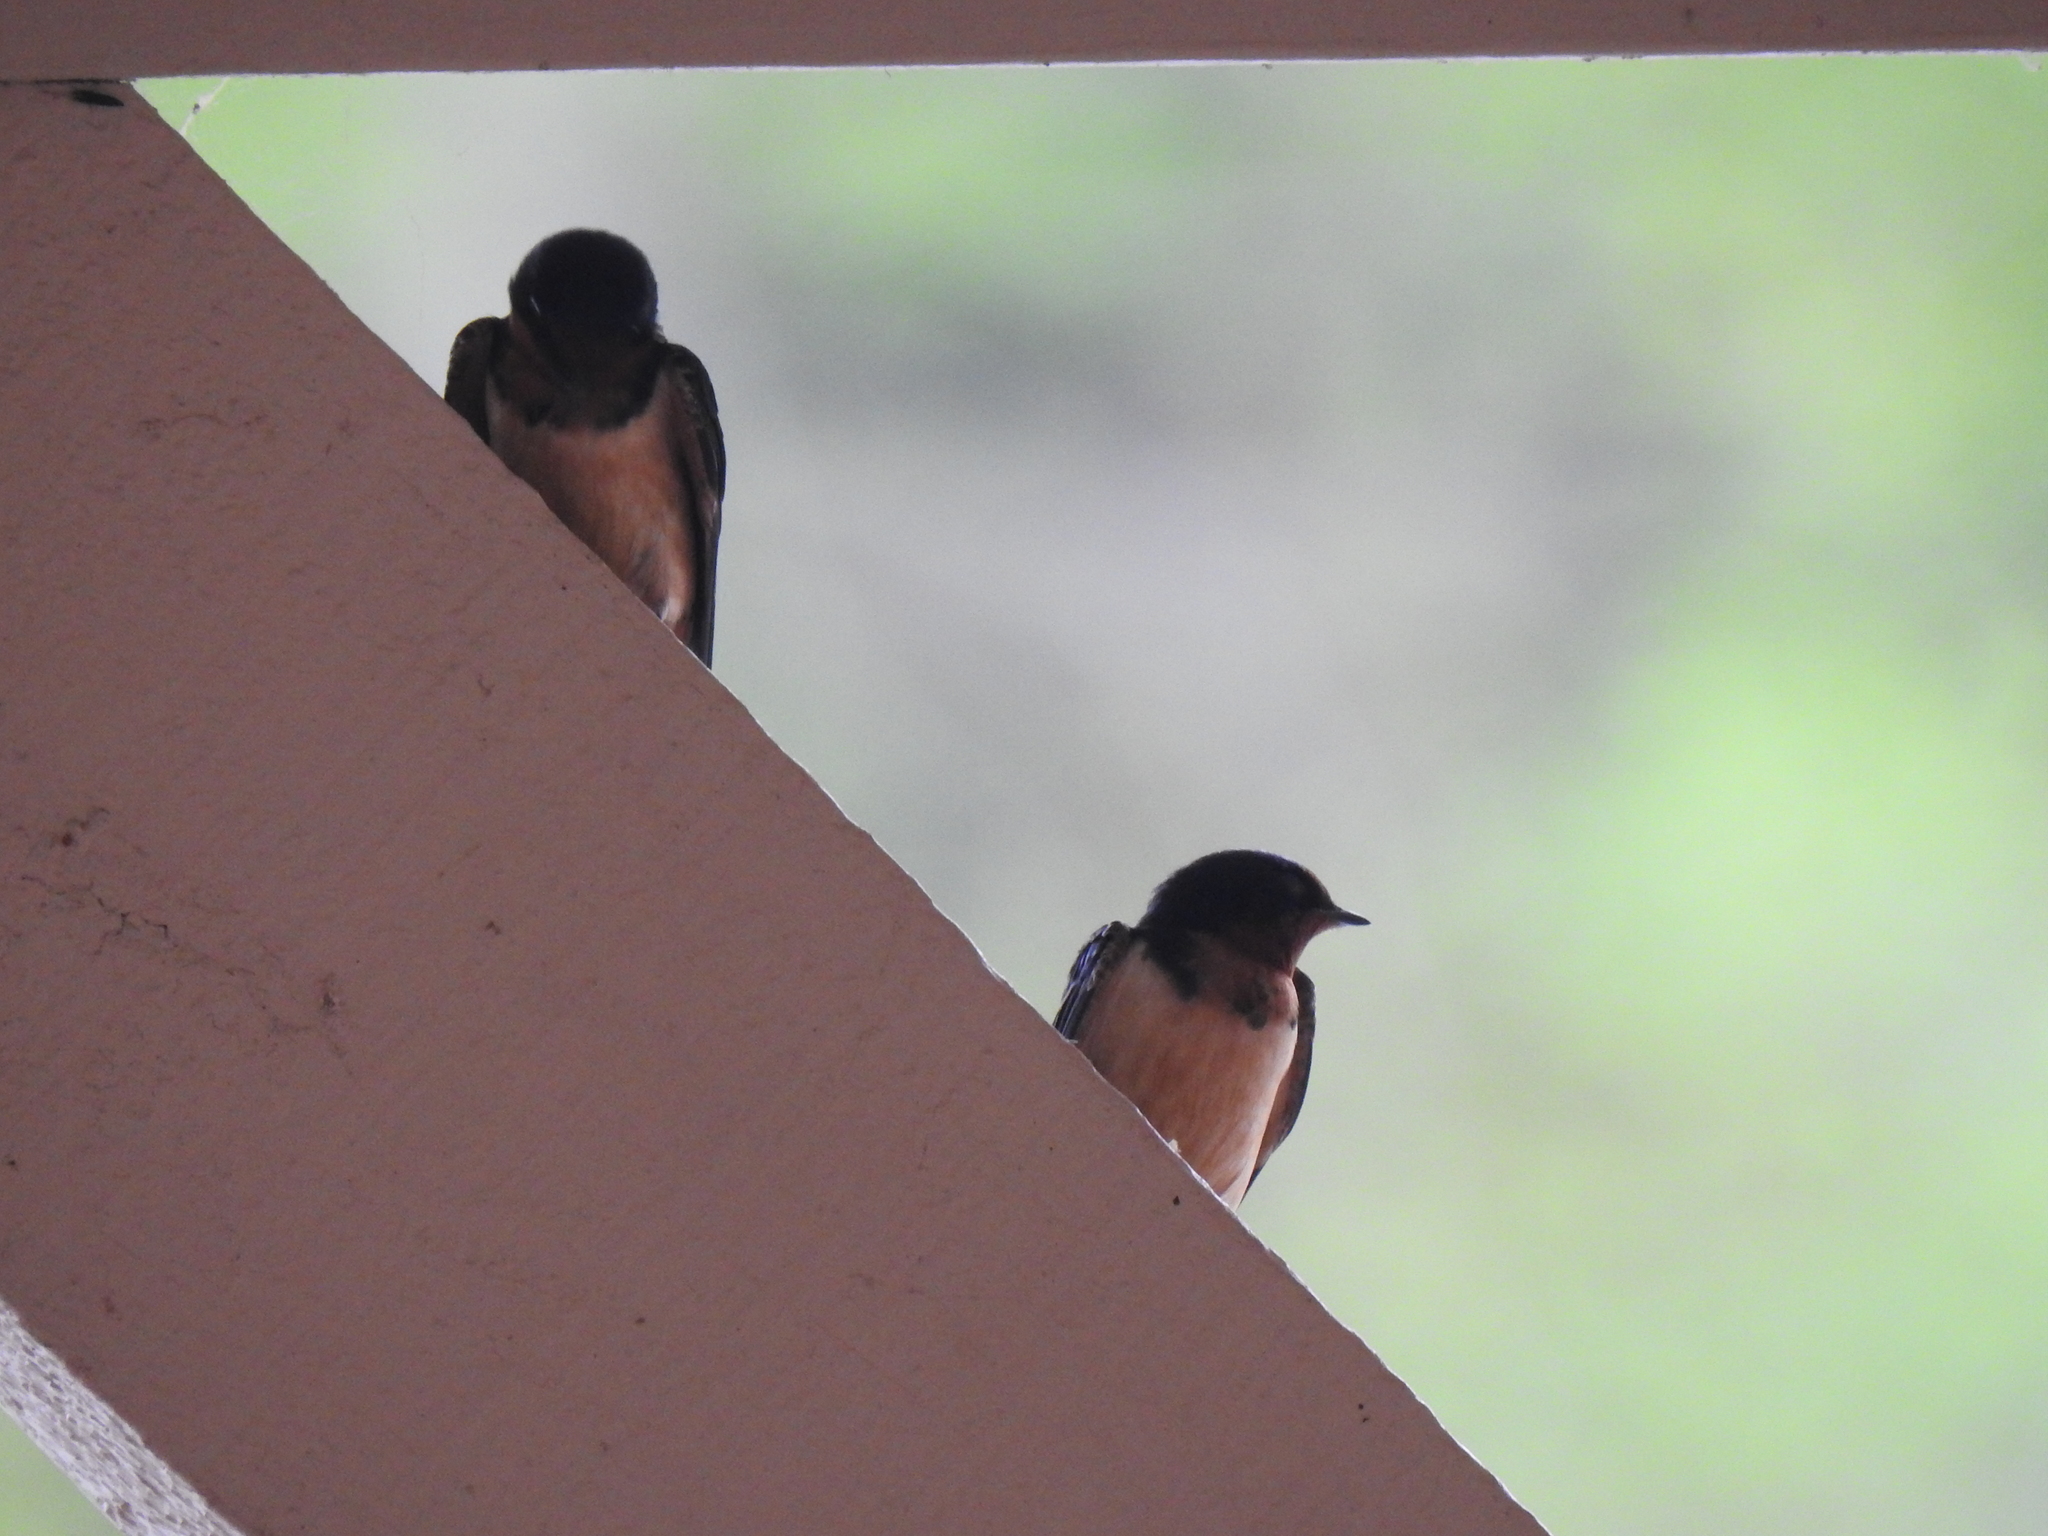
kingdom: Animalia
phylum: Chordata
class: Aves
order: Passeriformes
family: Hirundinidae
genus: Hirundo
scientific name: Hirundo rustica
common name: Barn swallow
